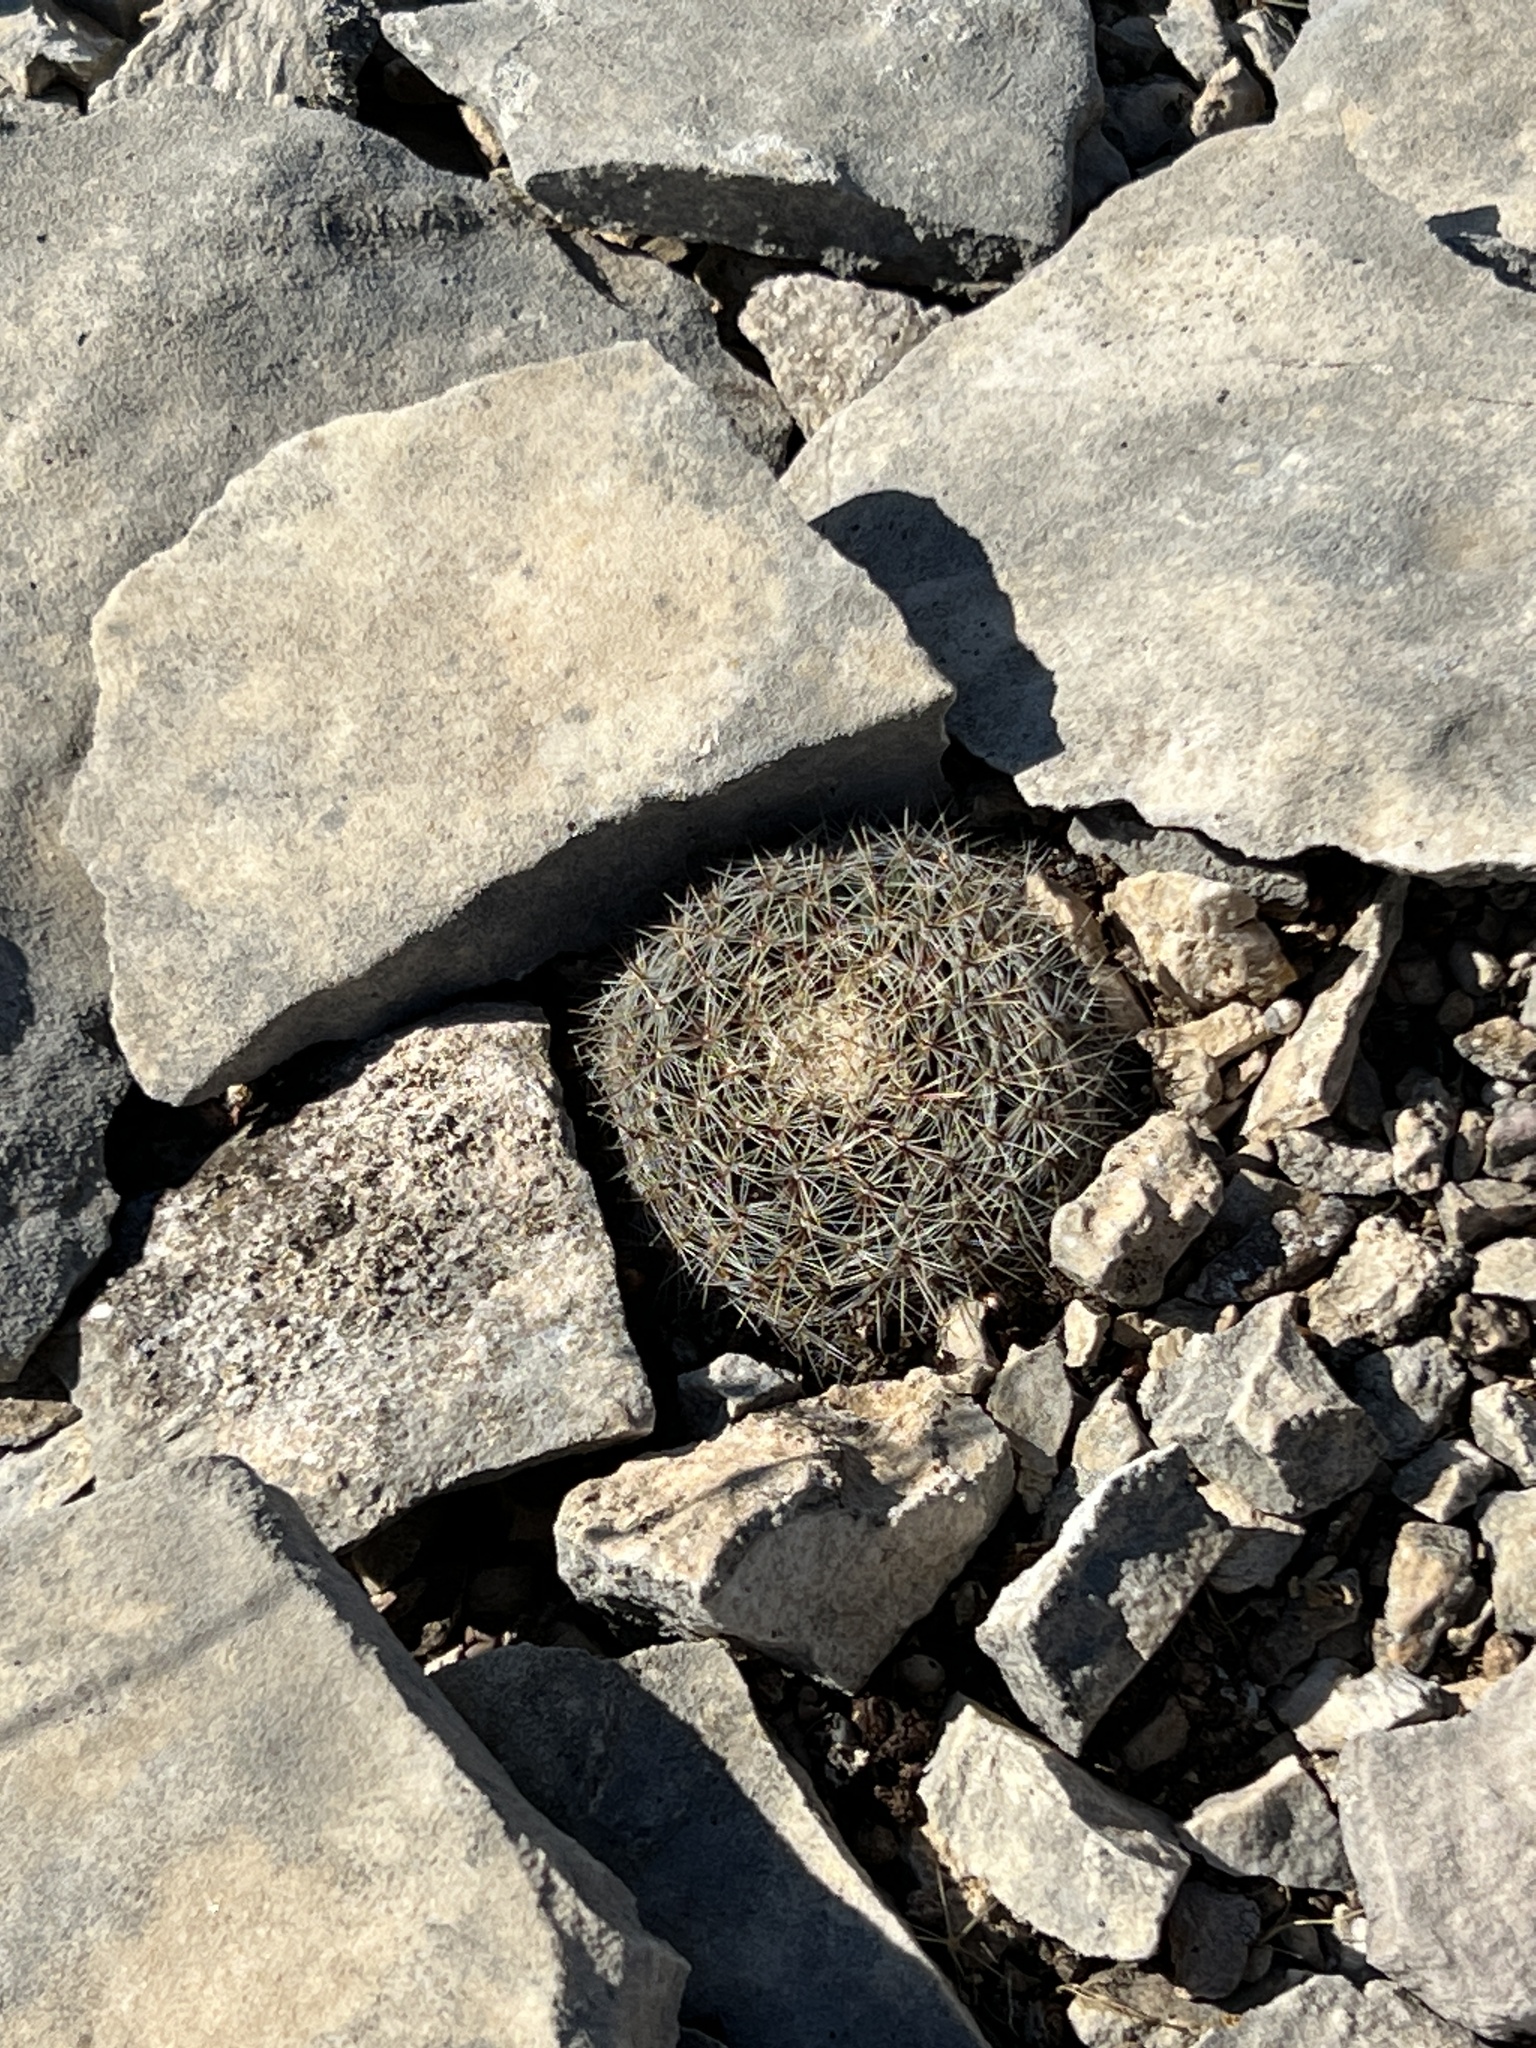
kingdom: Plantae
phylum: Tracheophyta
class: Magnoliopsida
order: Caryophyllales
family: Cactaceae
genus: Mammillaria
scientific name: Mammillaria heyderi
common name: Little nipple cactus
